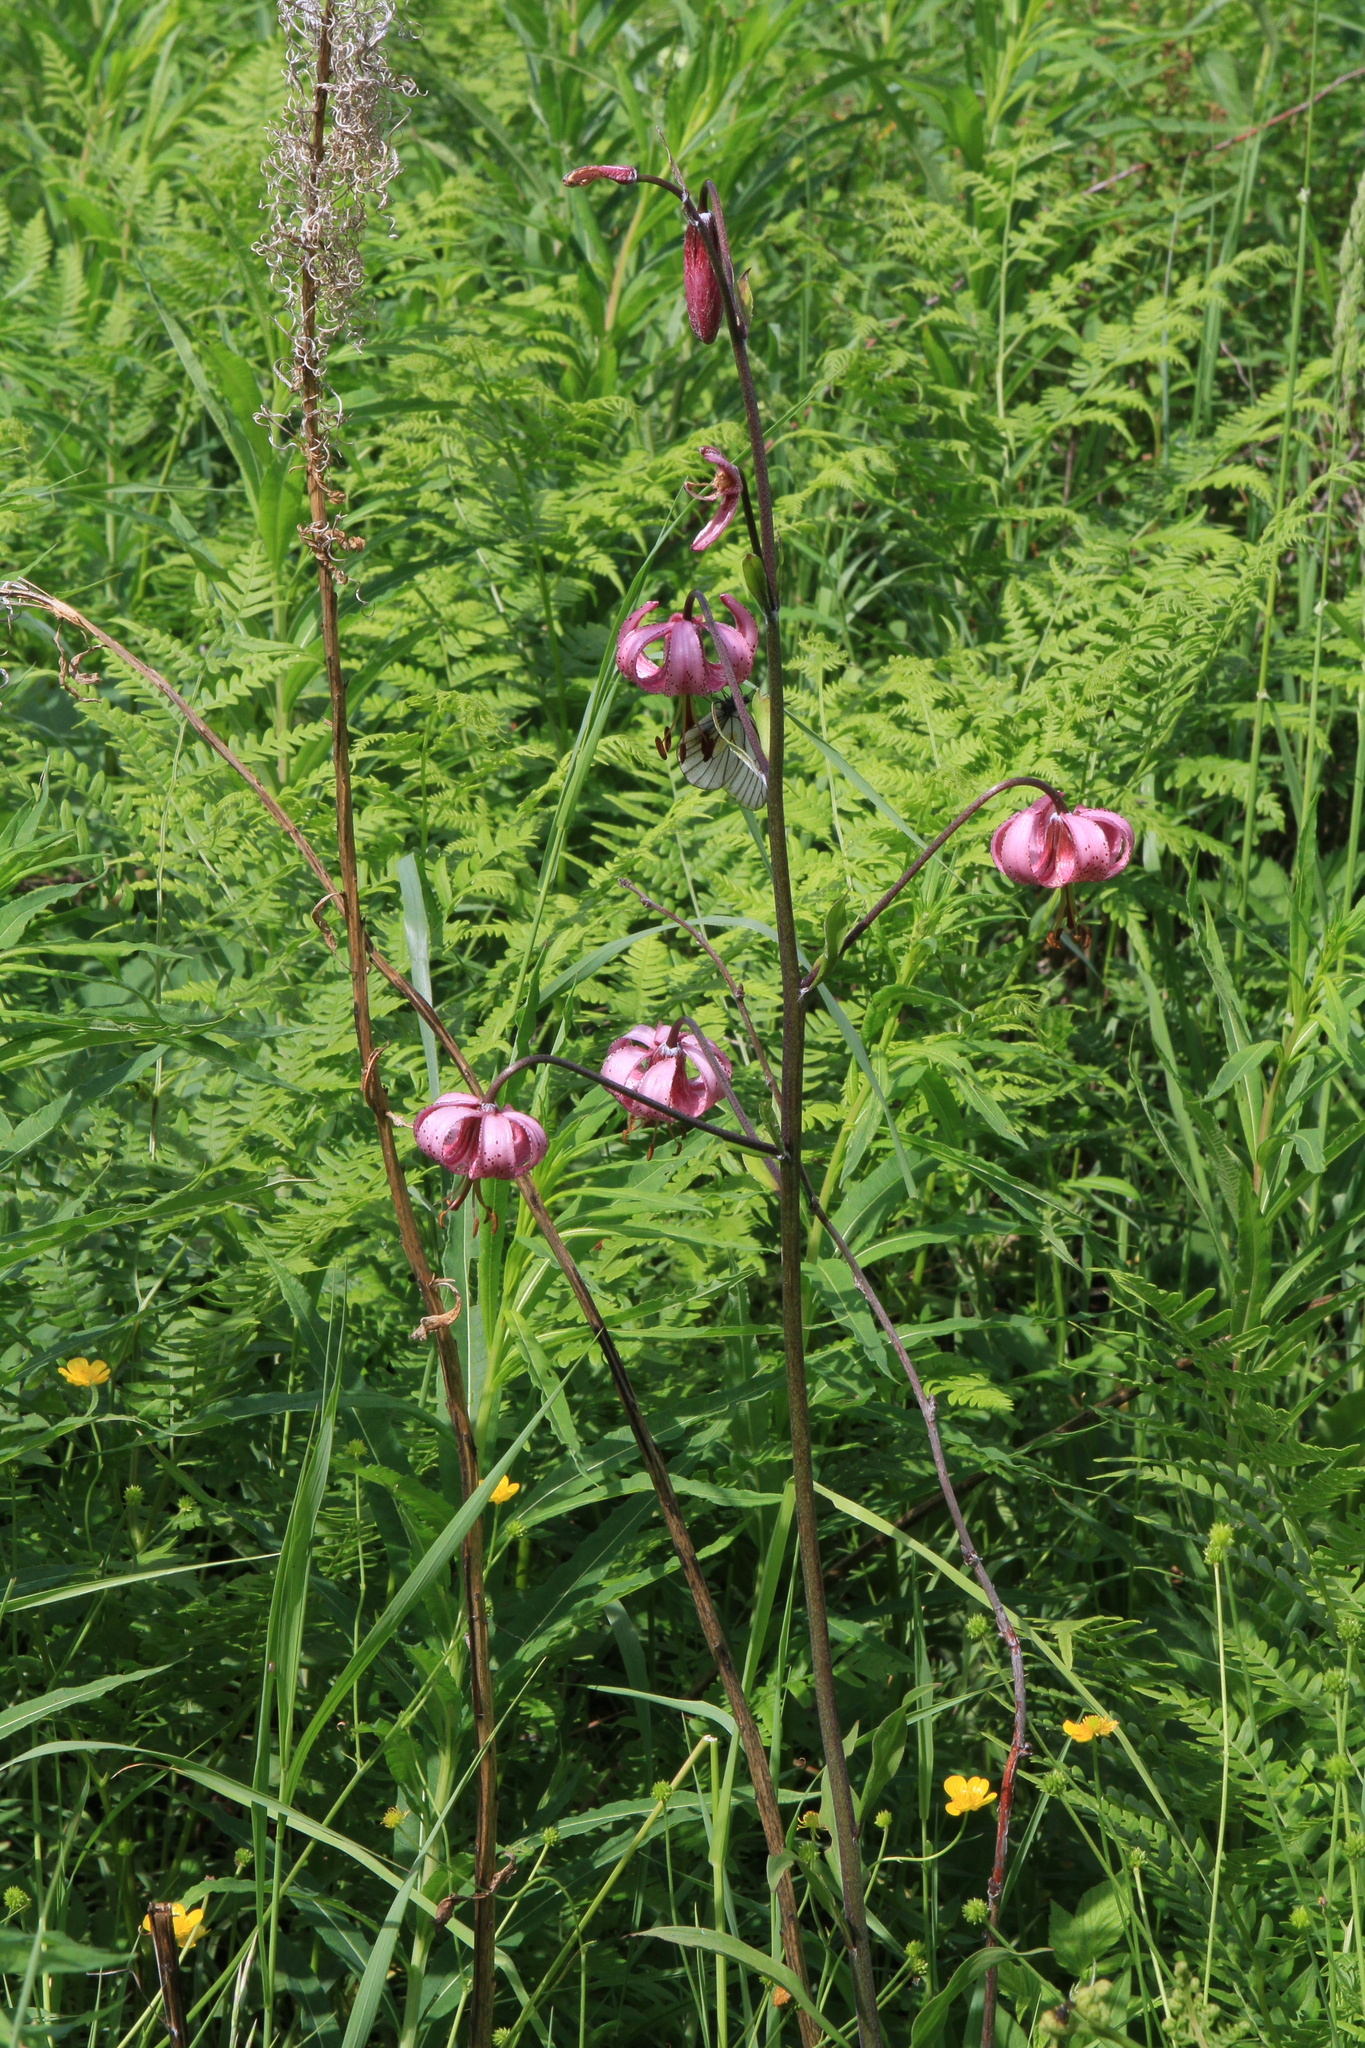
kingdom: Plantae
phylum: Tracheophyta
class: Liliopsida
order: Liliales
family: Liliaceae
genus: Lilium
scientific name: Lilium martagon
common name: Martagon lily
